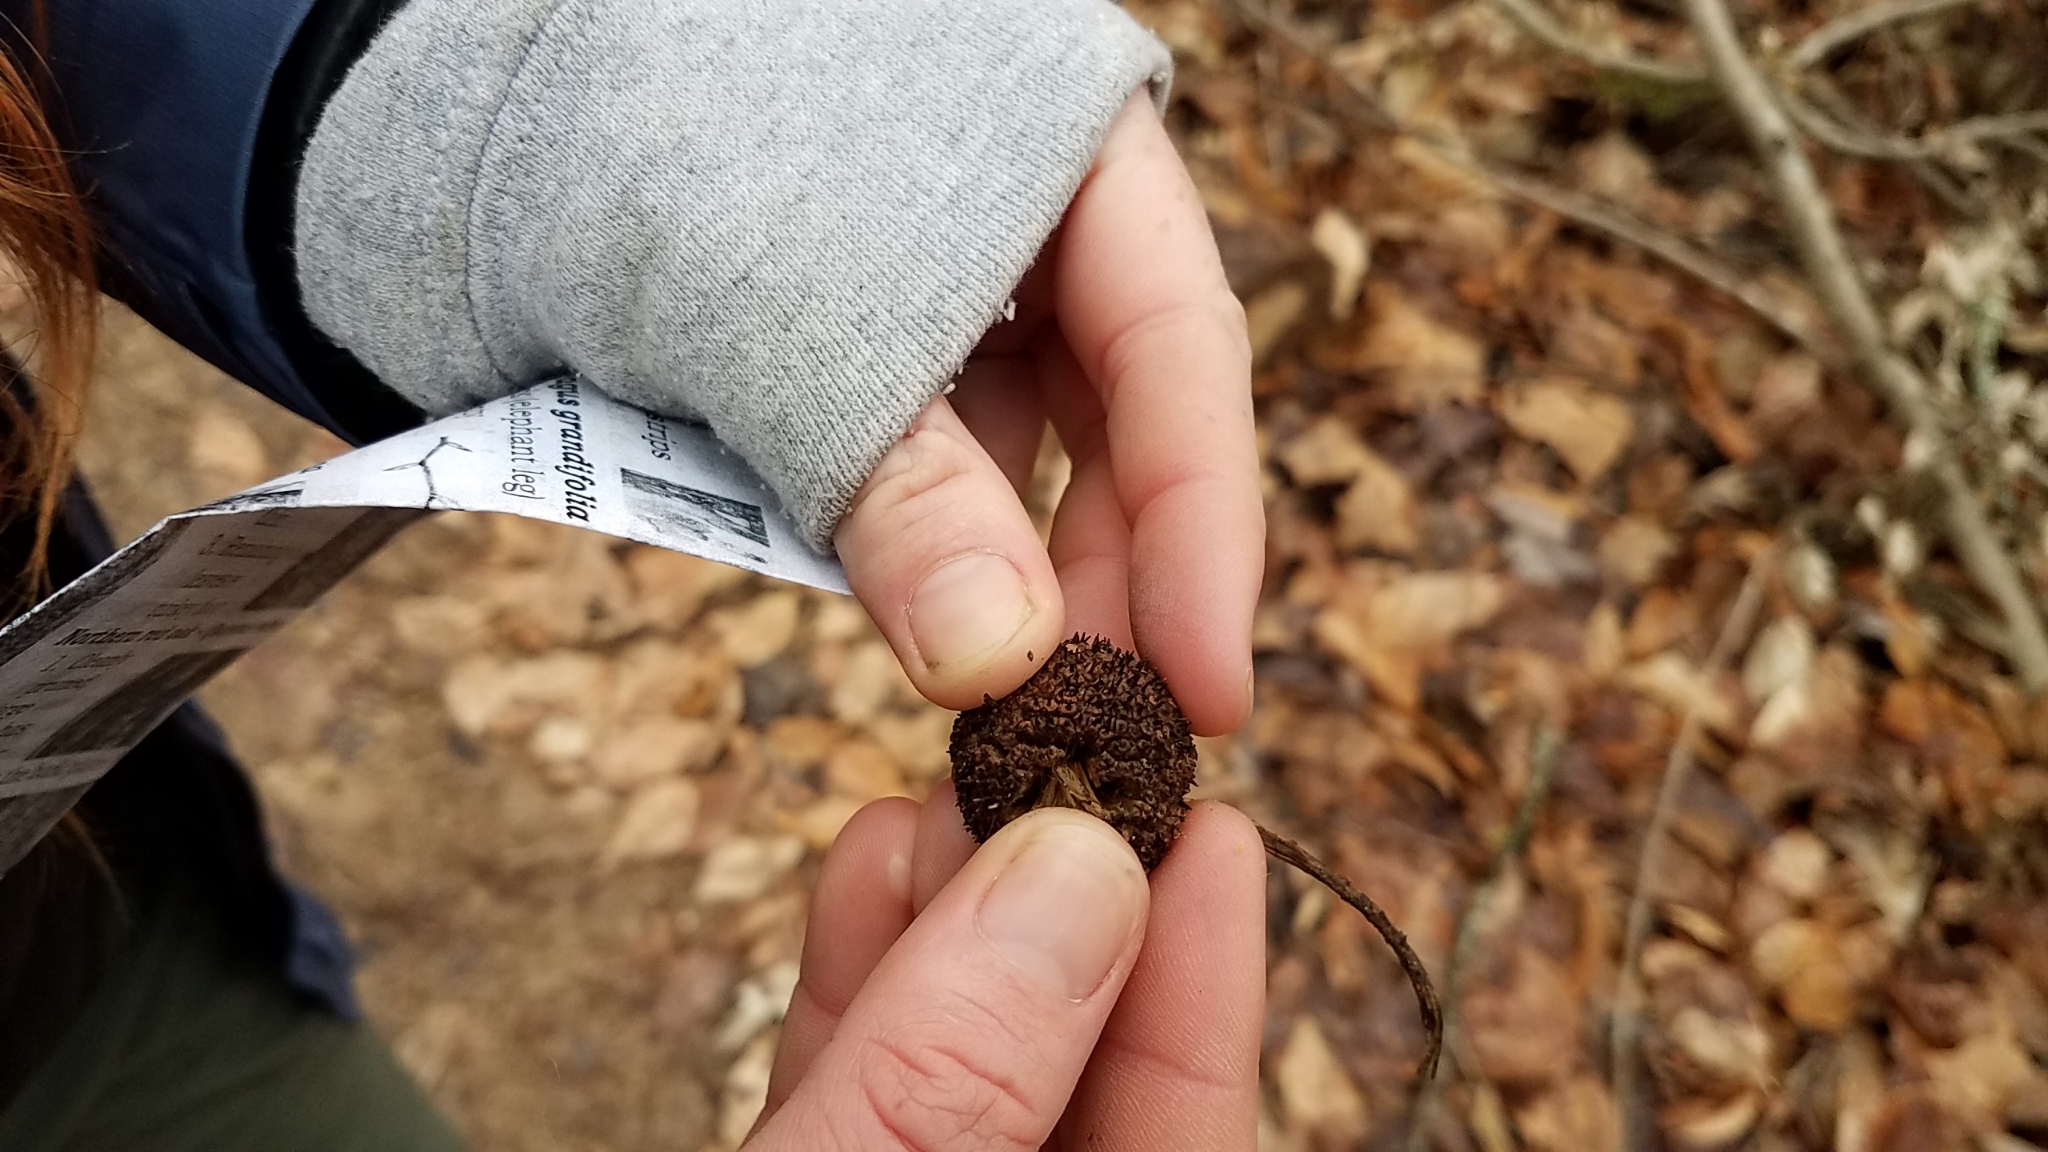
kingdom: Plantae
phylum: Tracheophyta
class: Magnoliopsida
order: Proteales
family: Platanaceae
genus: Platanus
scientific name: Platanus occidentalis
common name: American sycamore
